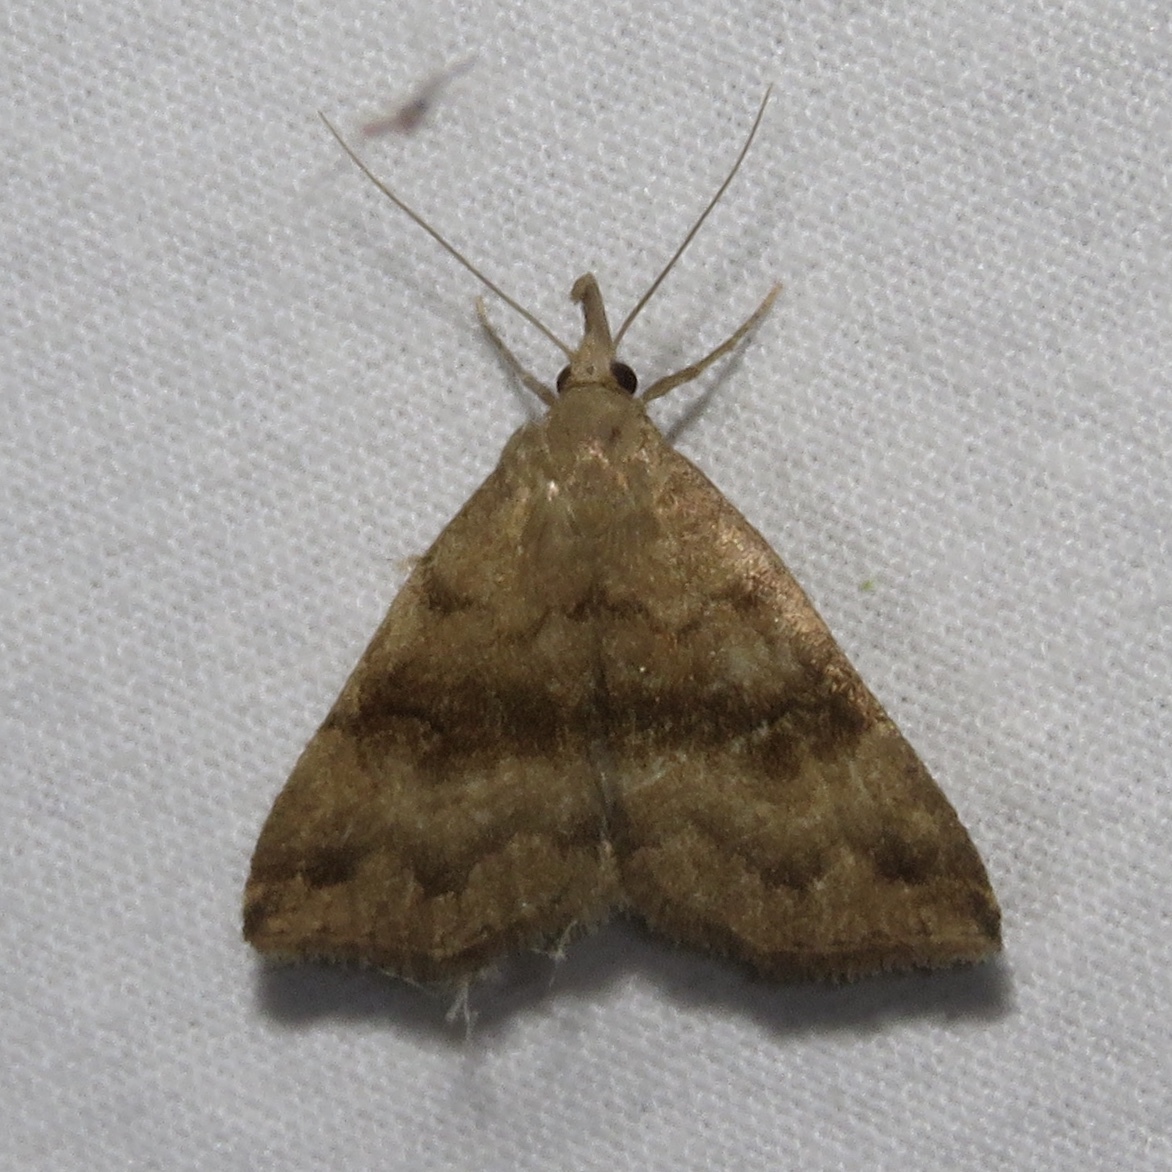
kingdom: Animalia
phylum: Arthropoda
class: Insecta
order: Lepidoptera
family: Erebidae
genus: Phalaenostola
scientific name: Phalaenostola eumelusalis
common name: Dark phalaenostola moth
